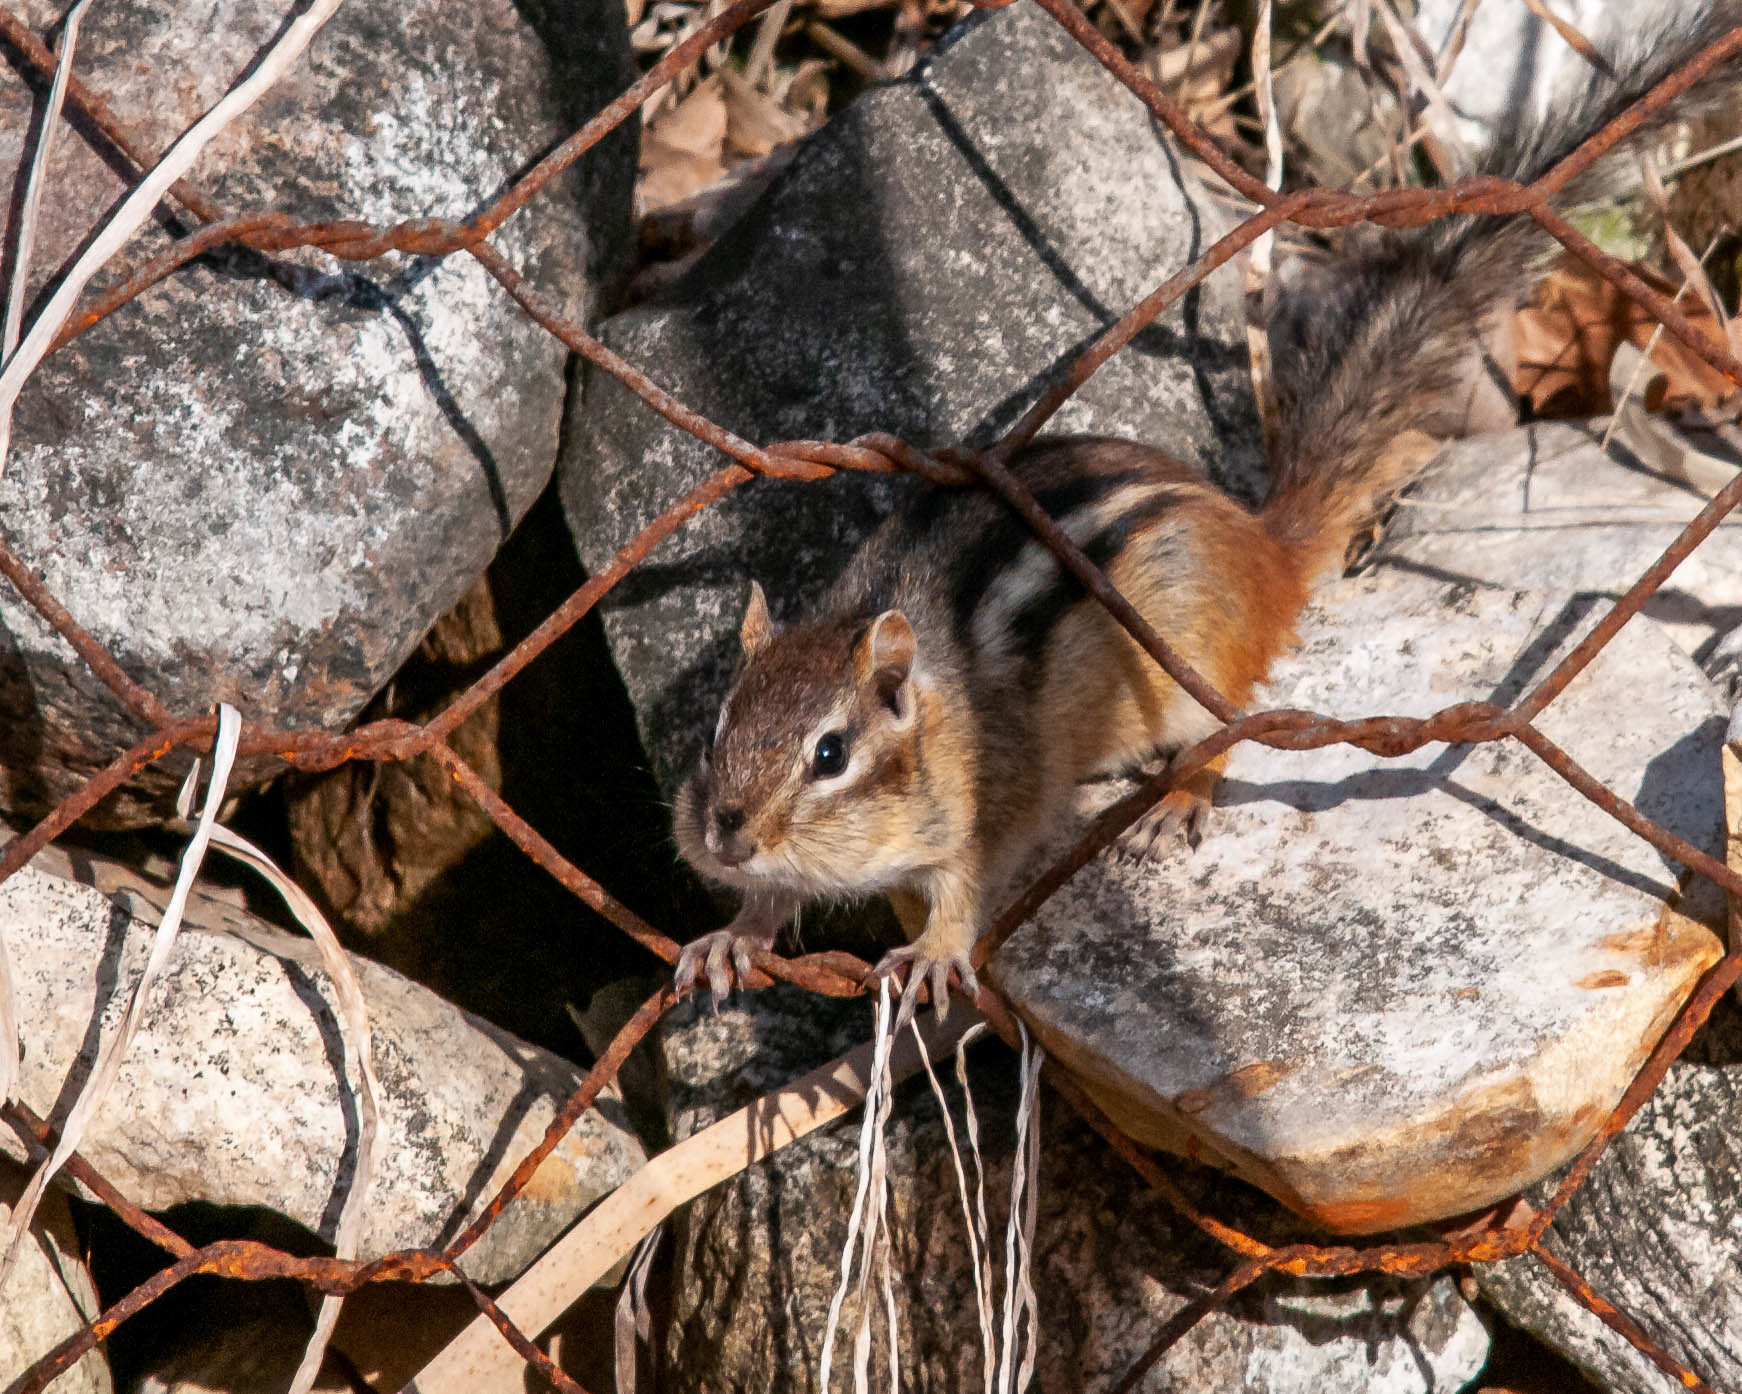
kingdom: Animalia
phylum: Chordata
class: Mammalia
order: Rodentia
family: Sciuridae
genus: Tamias
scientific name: Tamias striatus
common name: Eastern chipmunk
